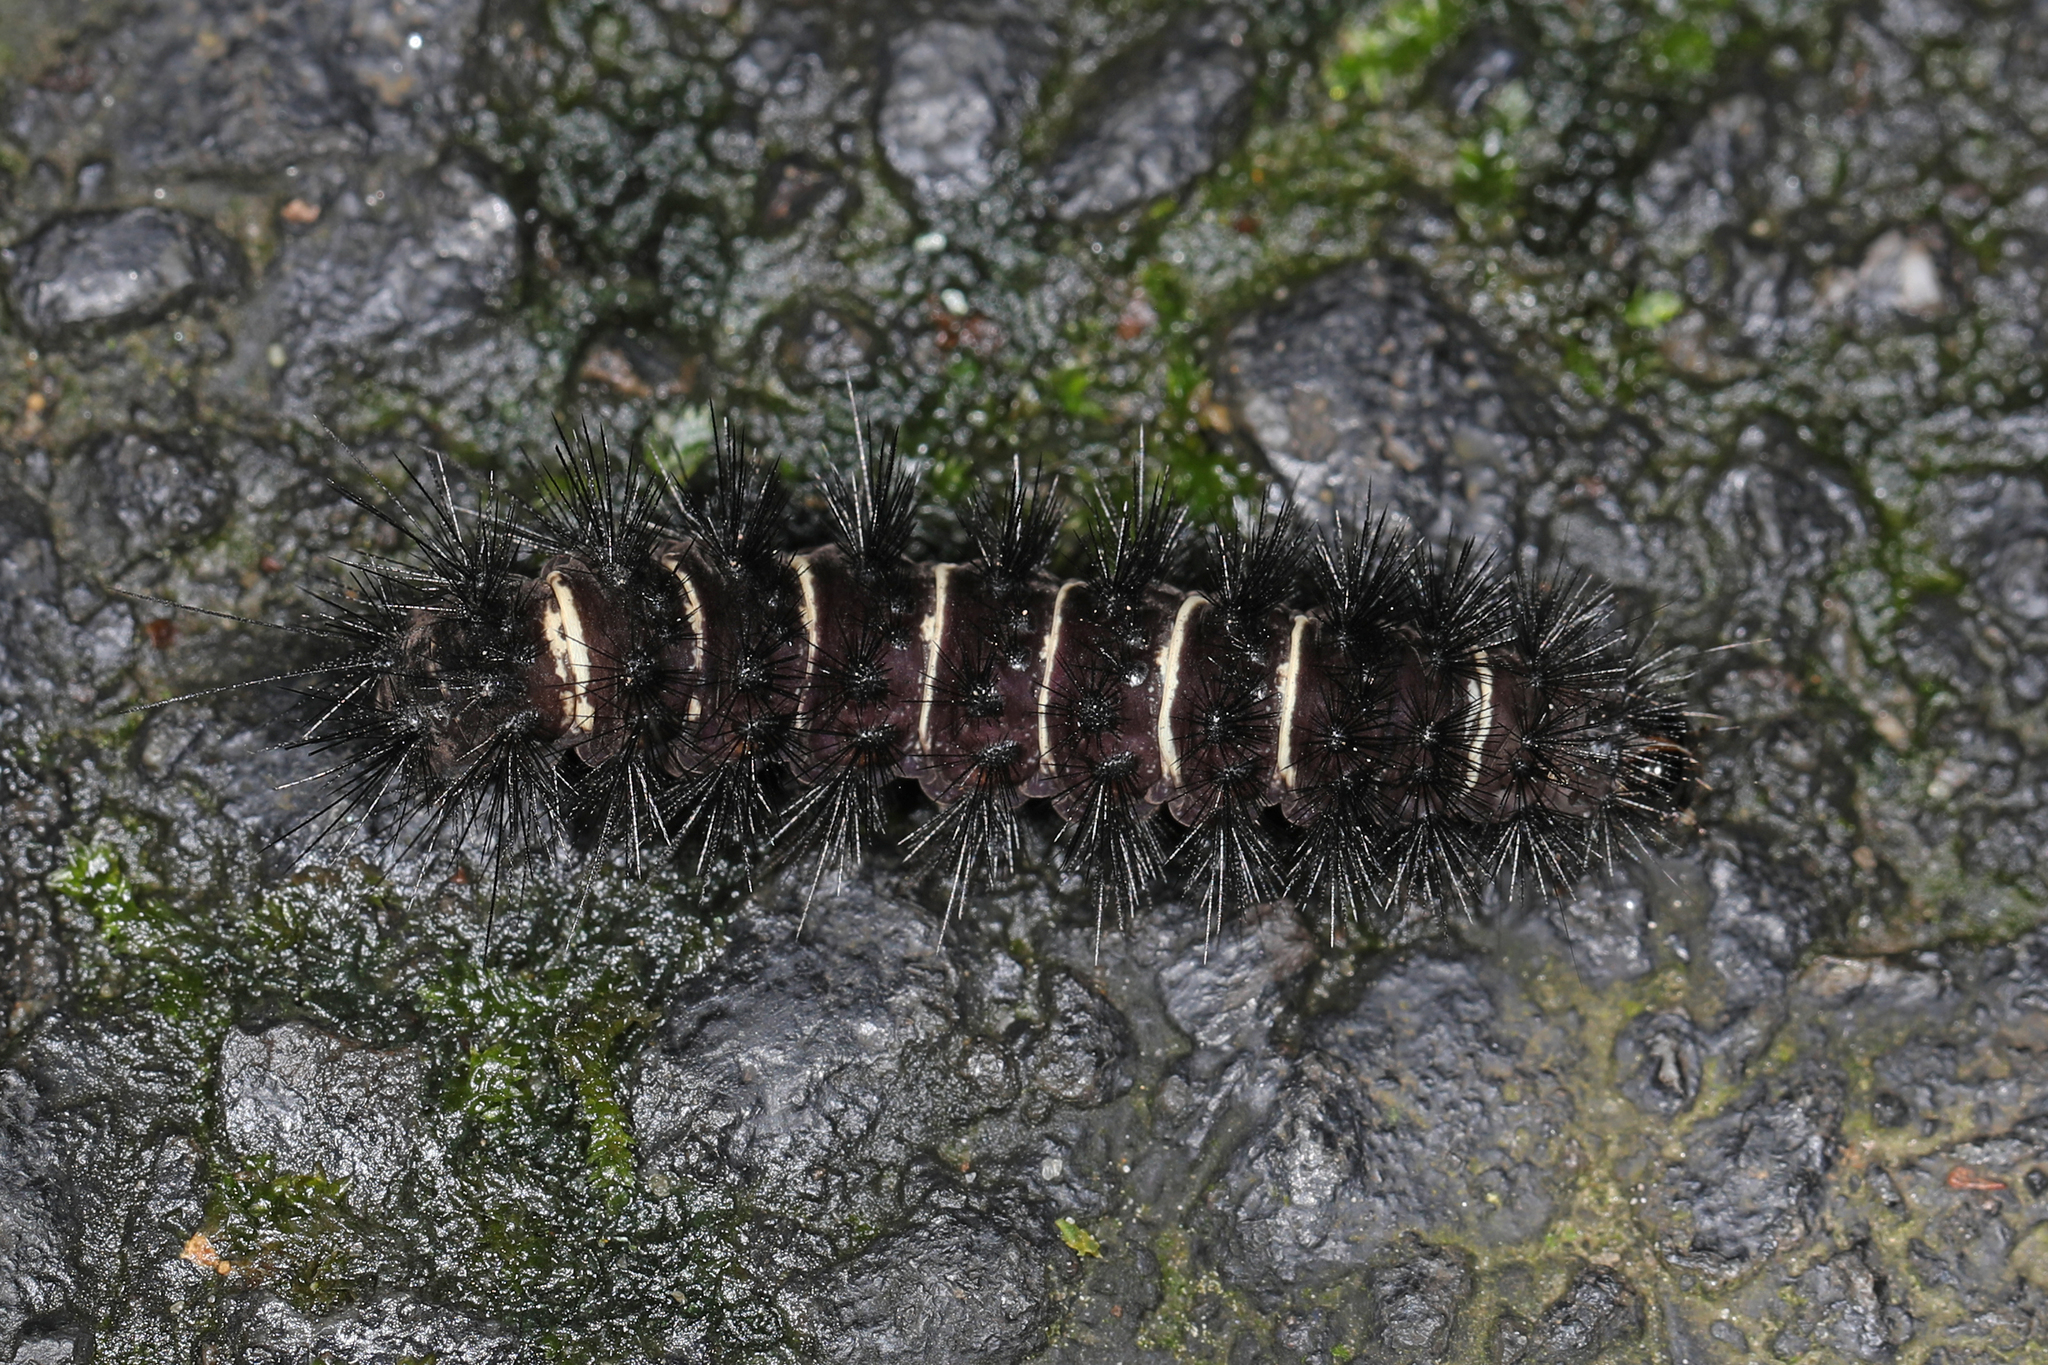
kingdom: Animalia
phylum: Arthropoda
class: Insecta
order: Lepidoptera
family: Erebidae
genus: Spilosoma
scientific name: Spilosoma congrua
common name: Agreeable tiger moth
